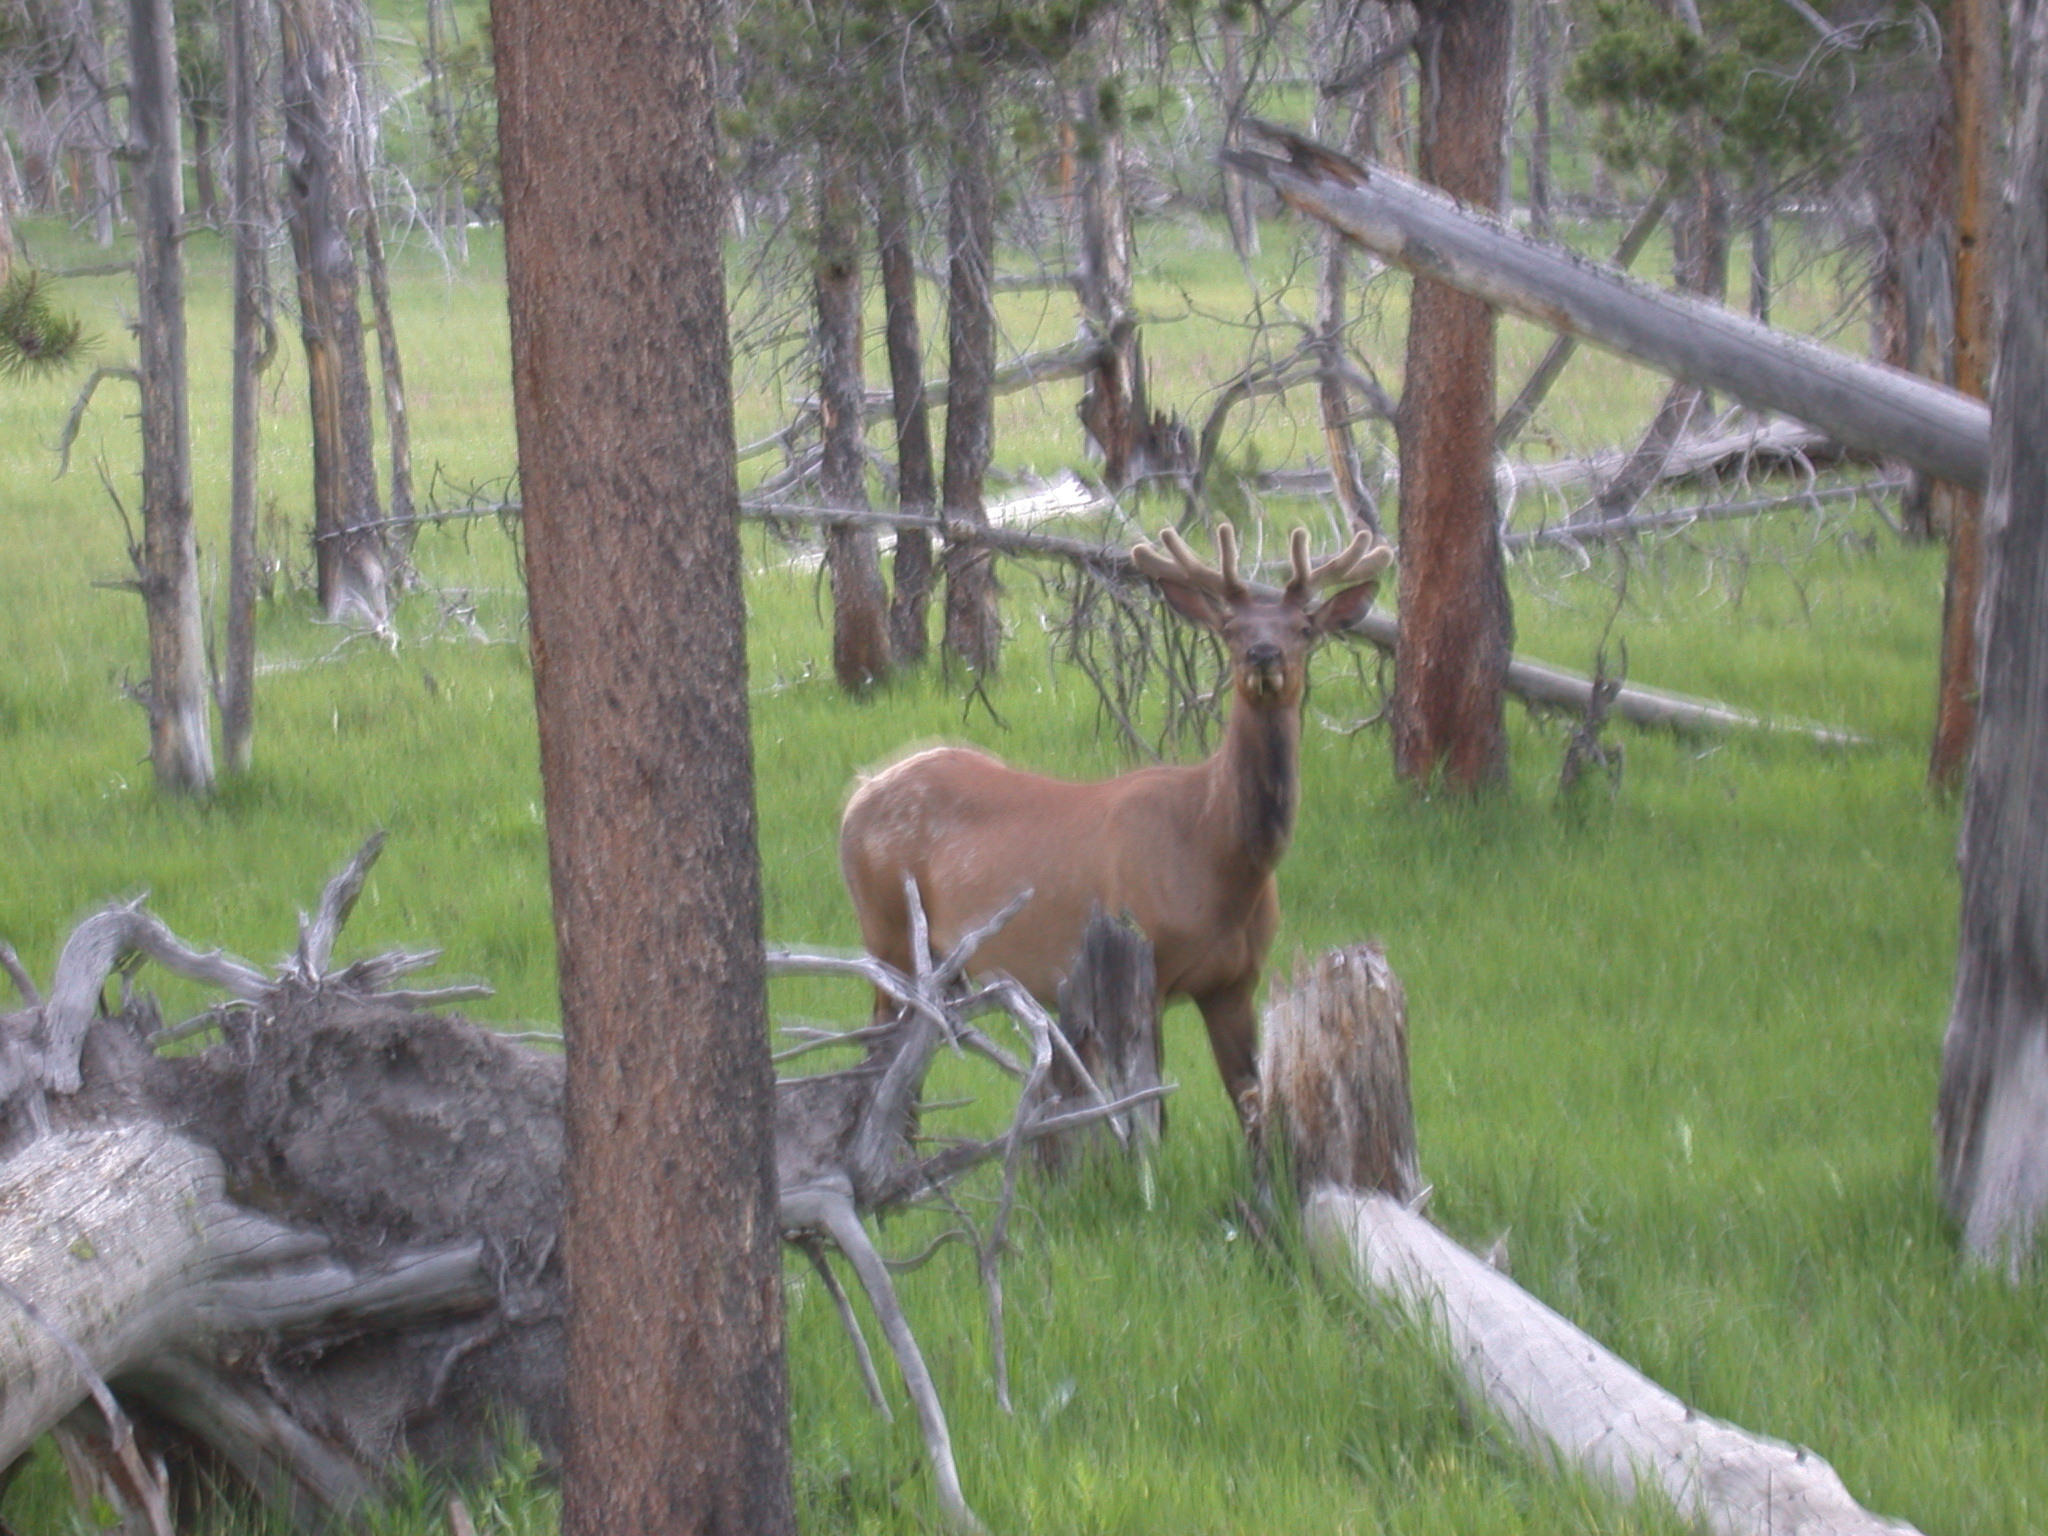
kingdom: Animalia
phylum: Chordata
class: Mammalia
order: Artiodactyla
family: Cervidae
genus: Cervus
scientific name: Cervus elaphus
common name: Red deer
